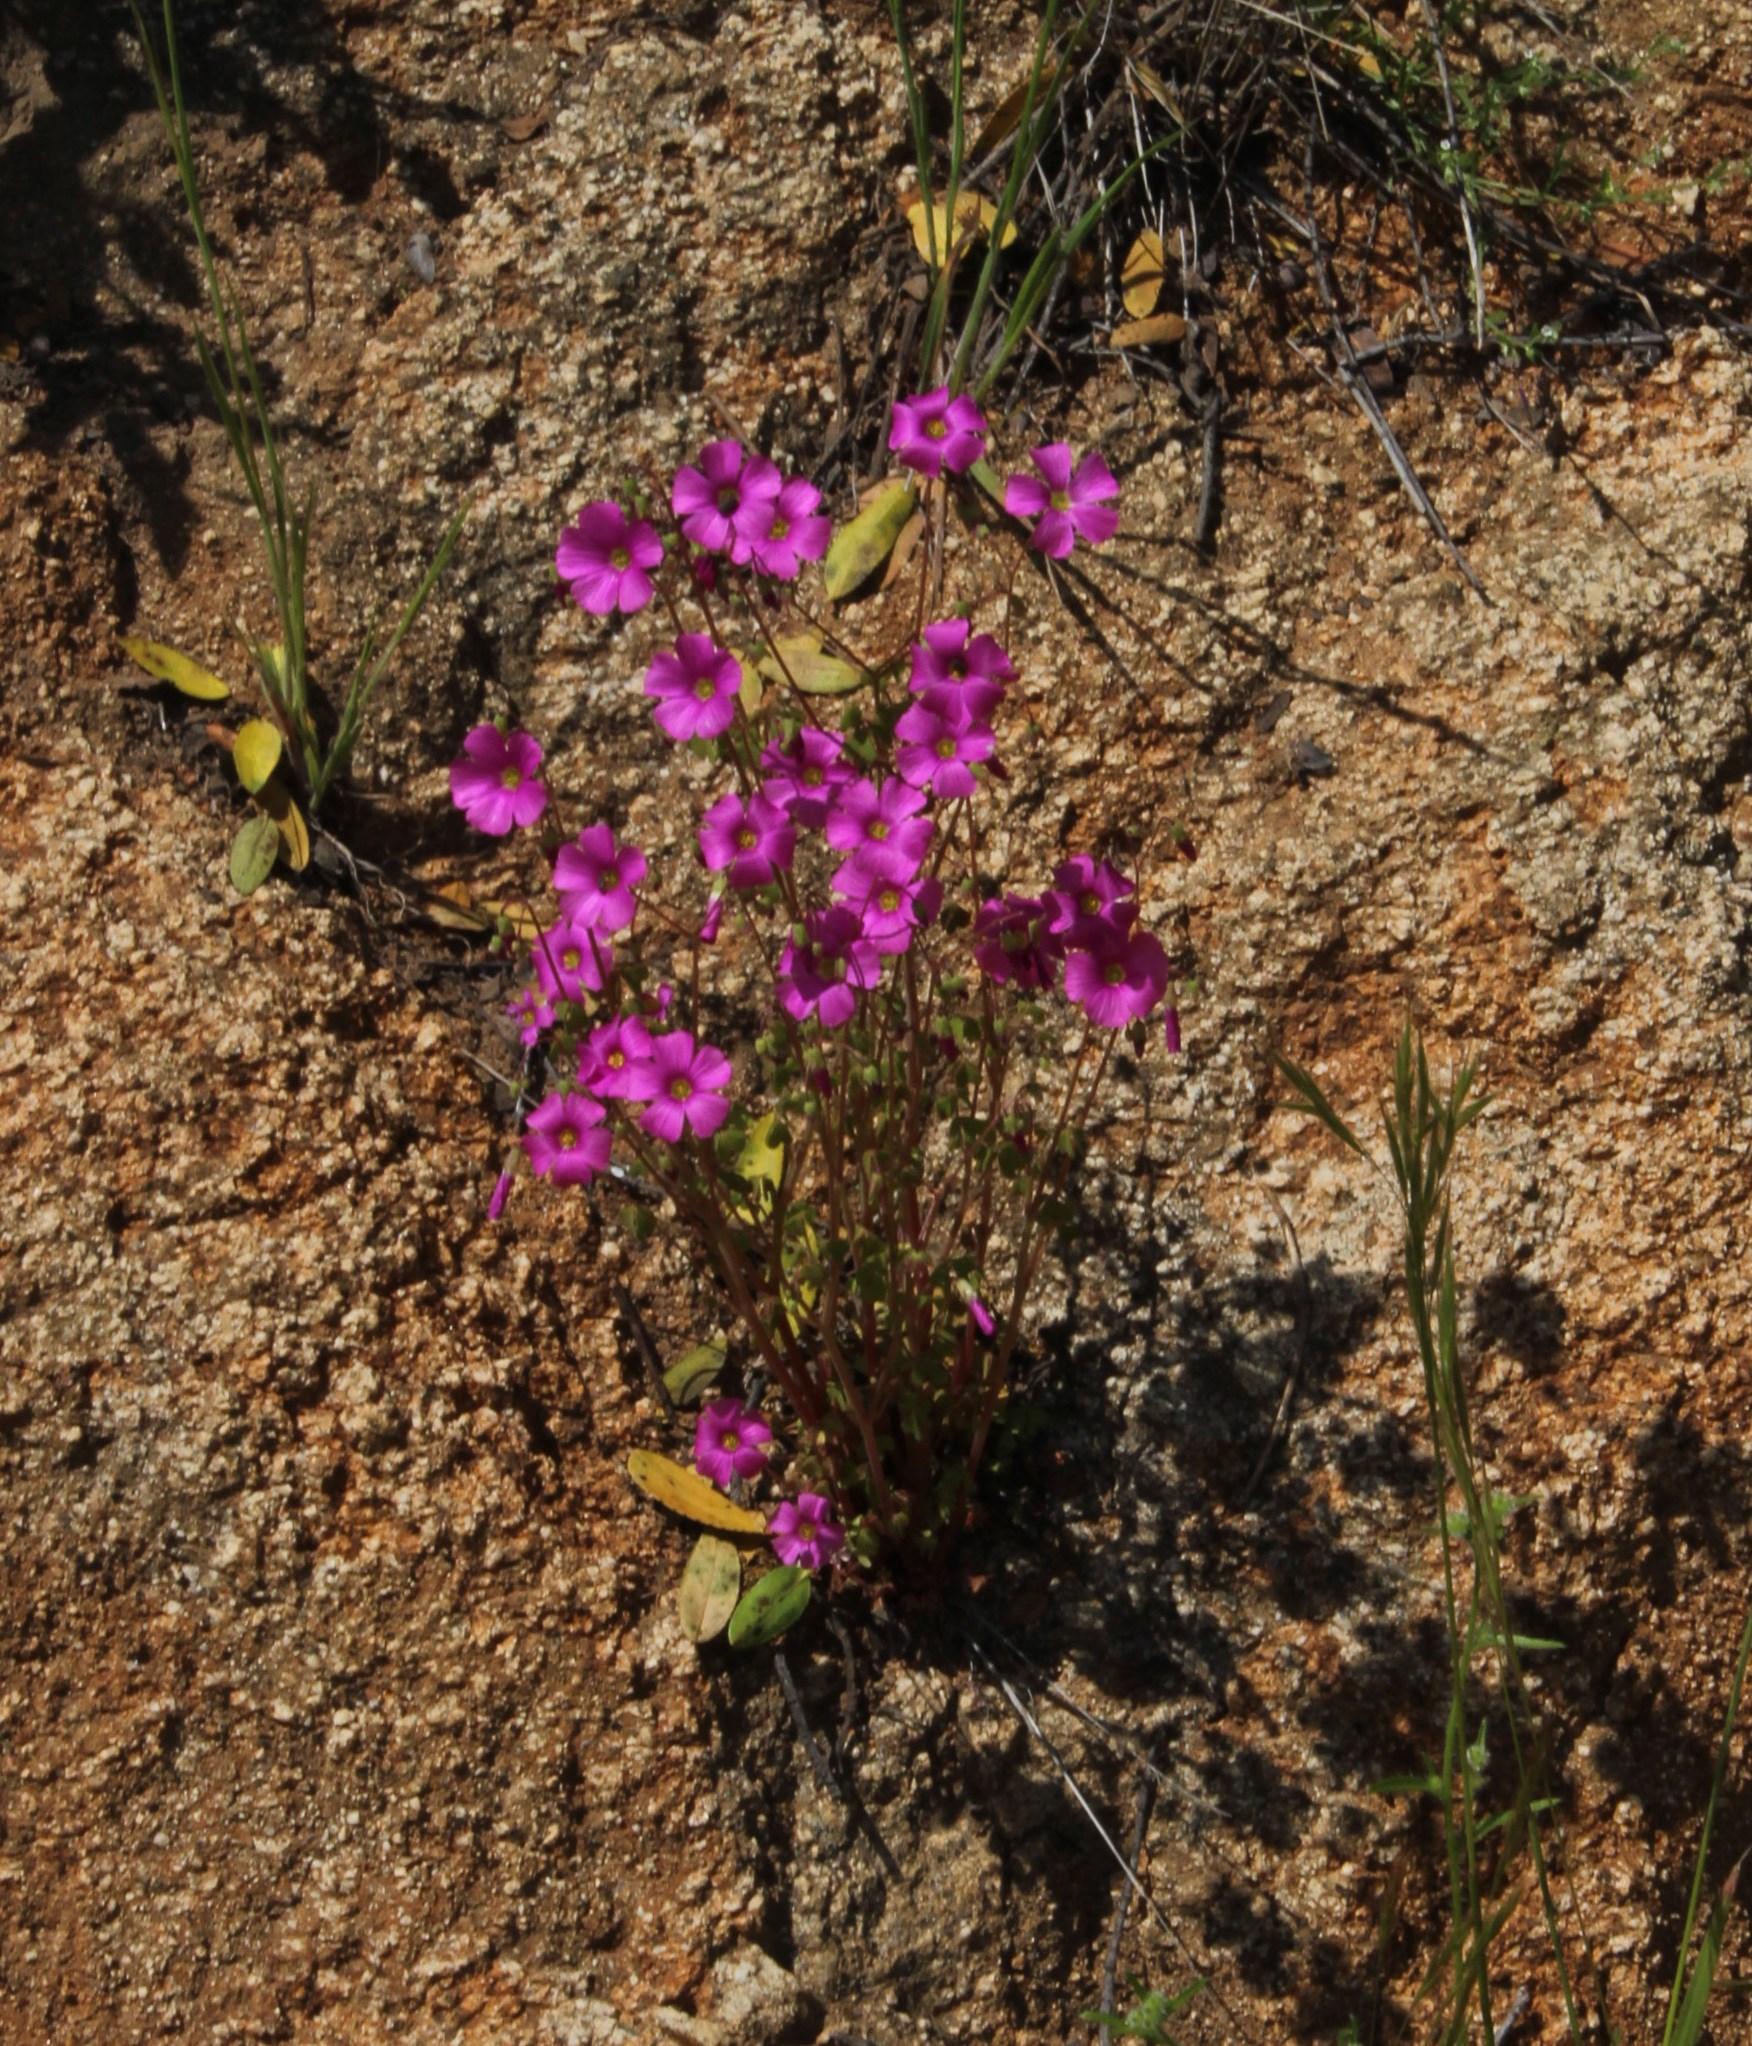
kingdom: Plantae
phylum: Tracheophyta
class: Magnoliopsida
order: Oxalidales
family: Oxalidaceae
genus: Oxalis
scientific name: Oxalis rosea
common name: Annual pink-sorrel
